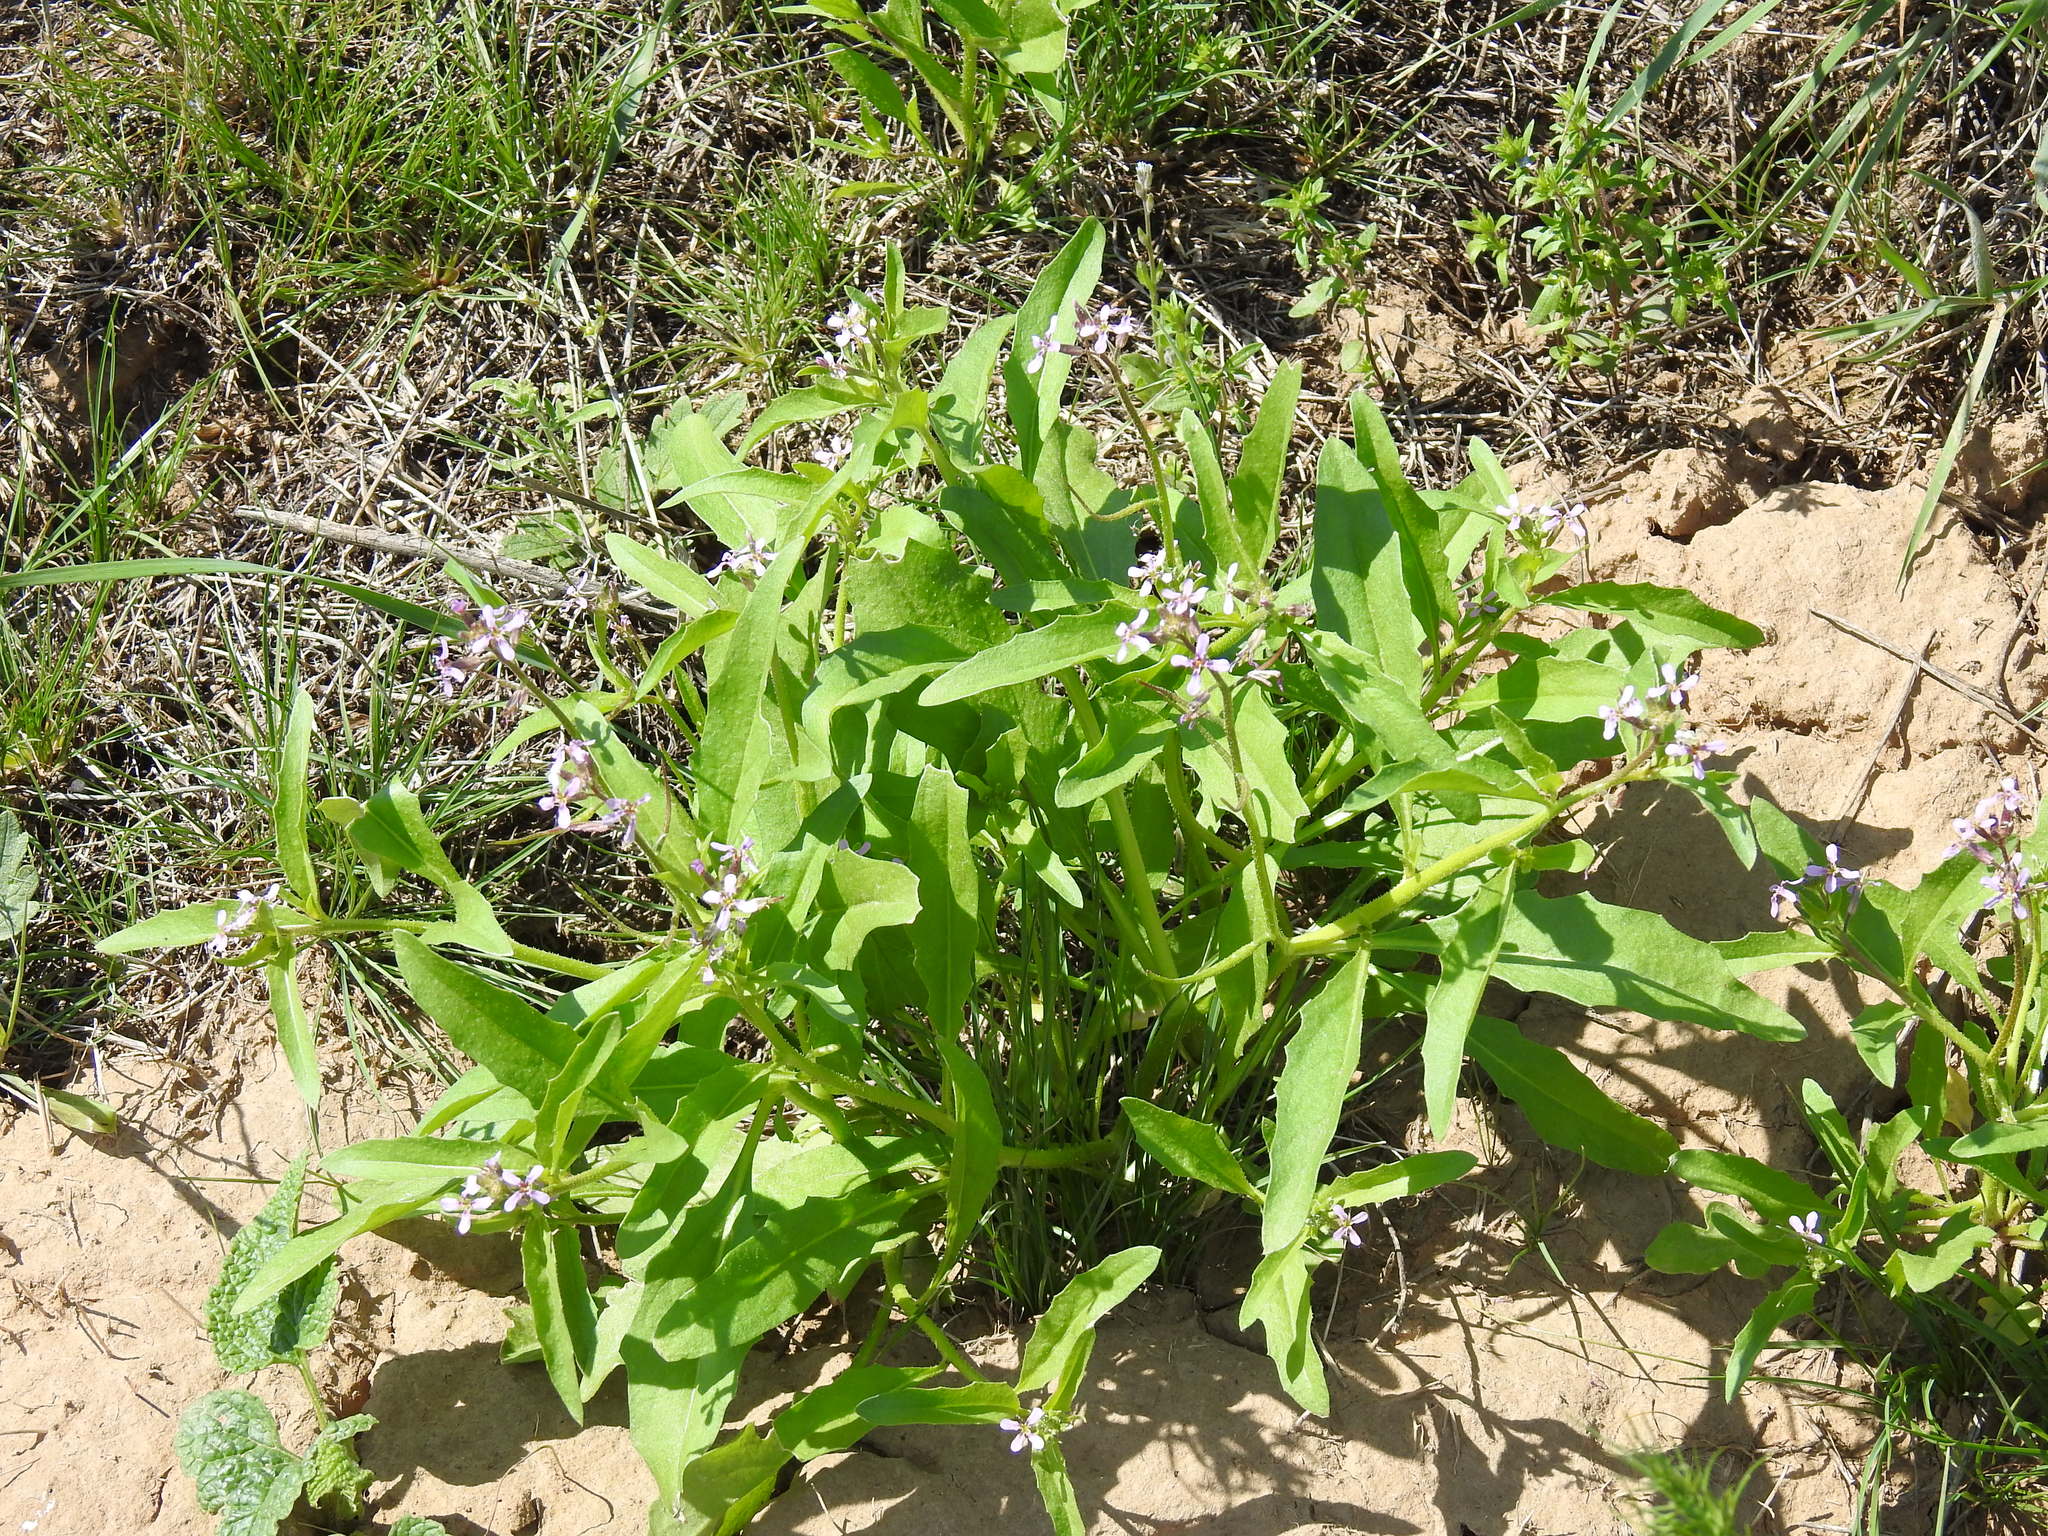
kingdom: Plantae
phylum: Tracheophyta
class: Magnoliopsida
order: Brassicales
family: Brassicaceae
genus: Chorispora
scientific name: Chorispora tenella
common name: Crossflower
